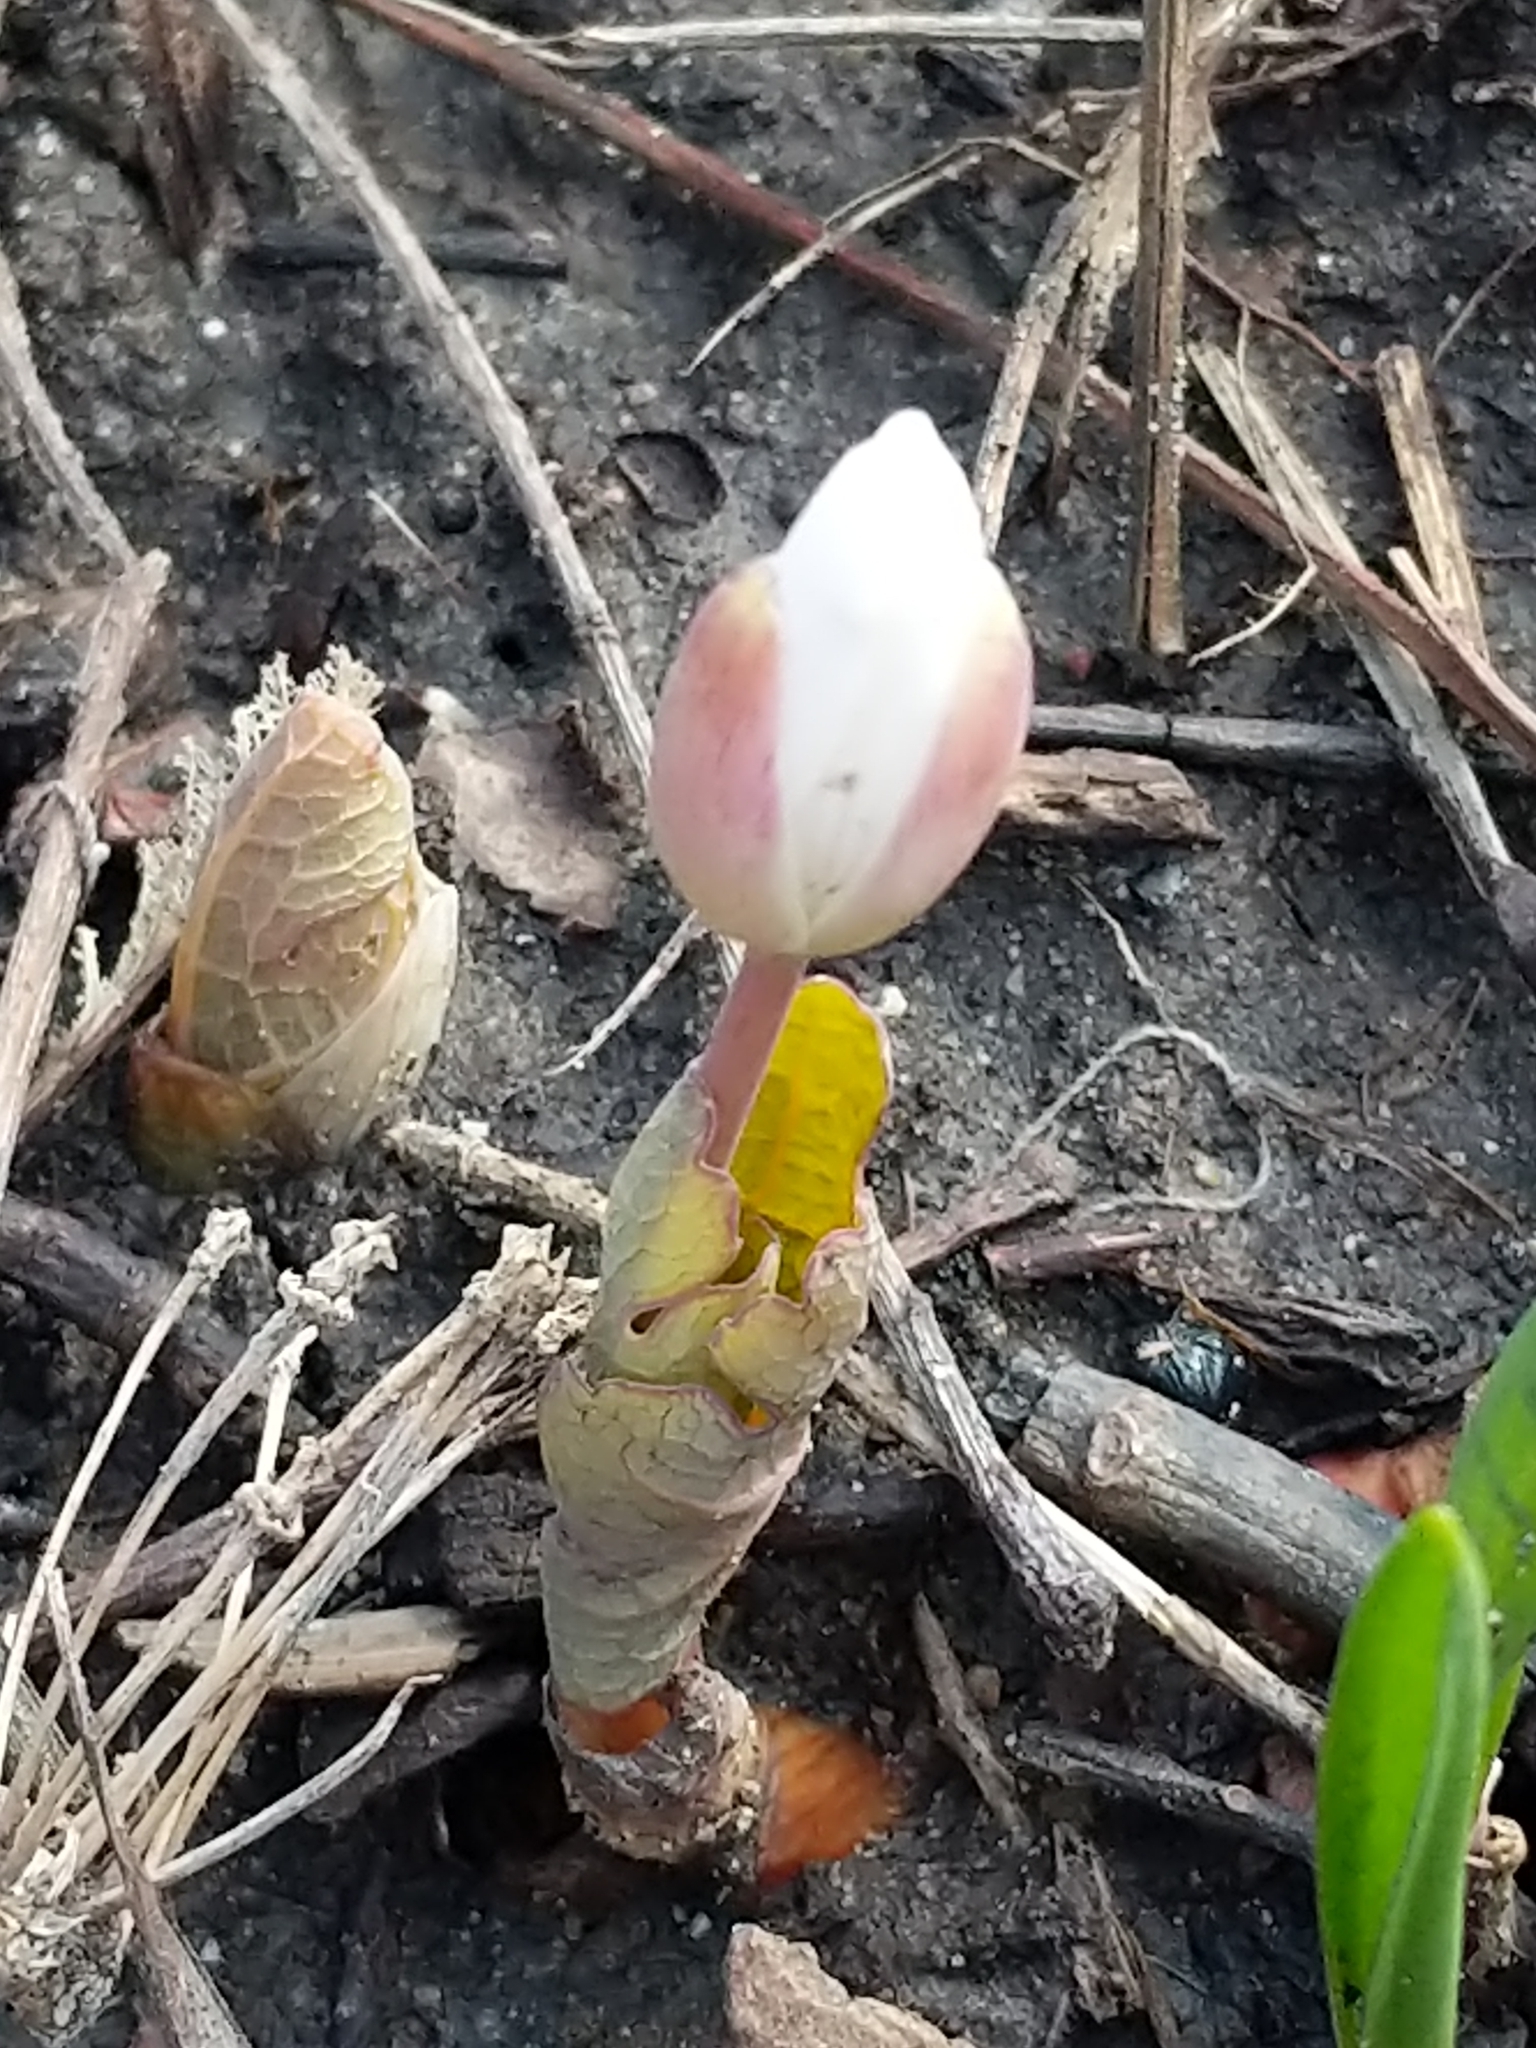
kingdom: Plantae
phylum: Tracheophyta
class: Magnoliopsida
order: Ranunculales
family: Papaveraceae
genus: Sanguinaria
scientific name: Sanguinaria canadensis
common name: Bloodroot
